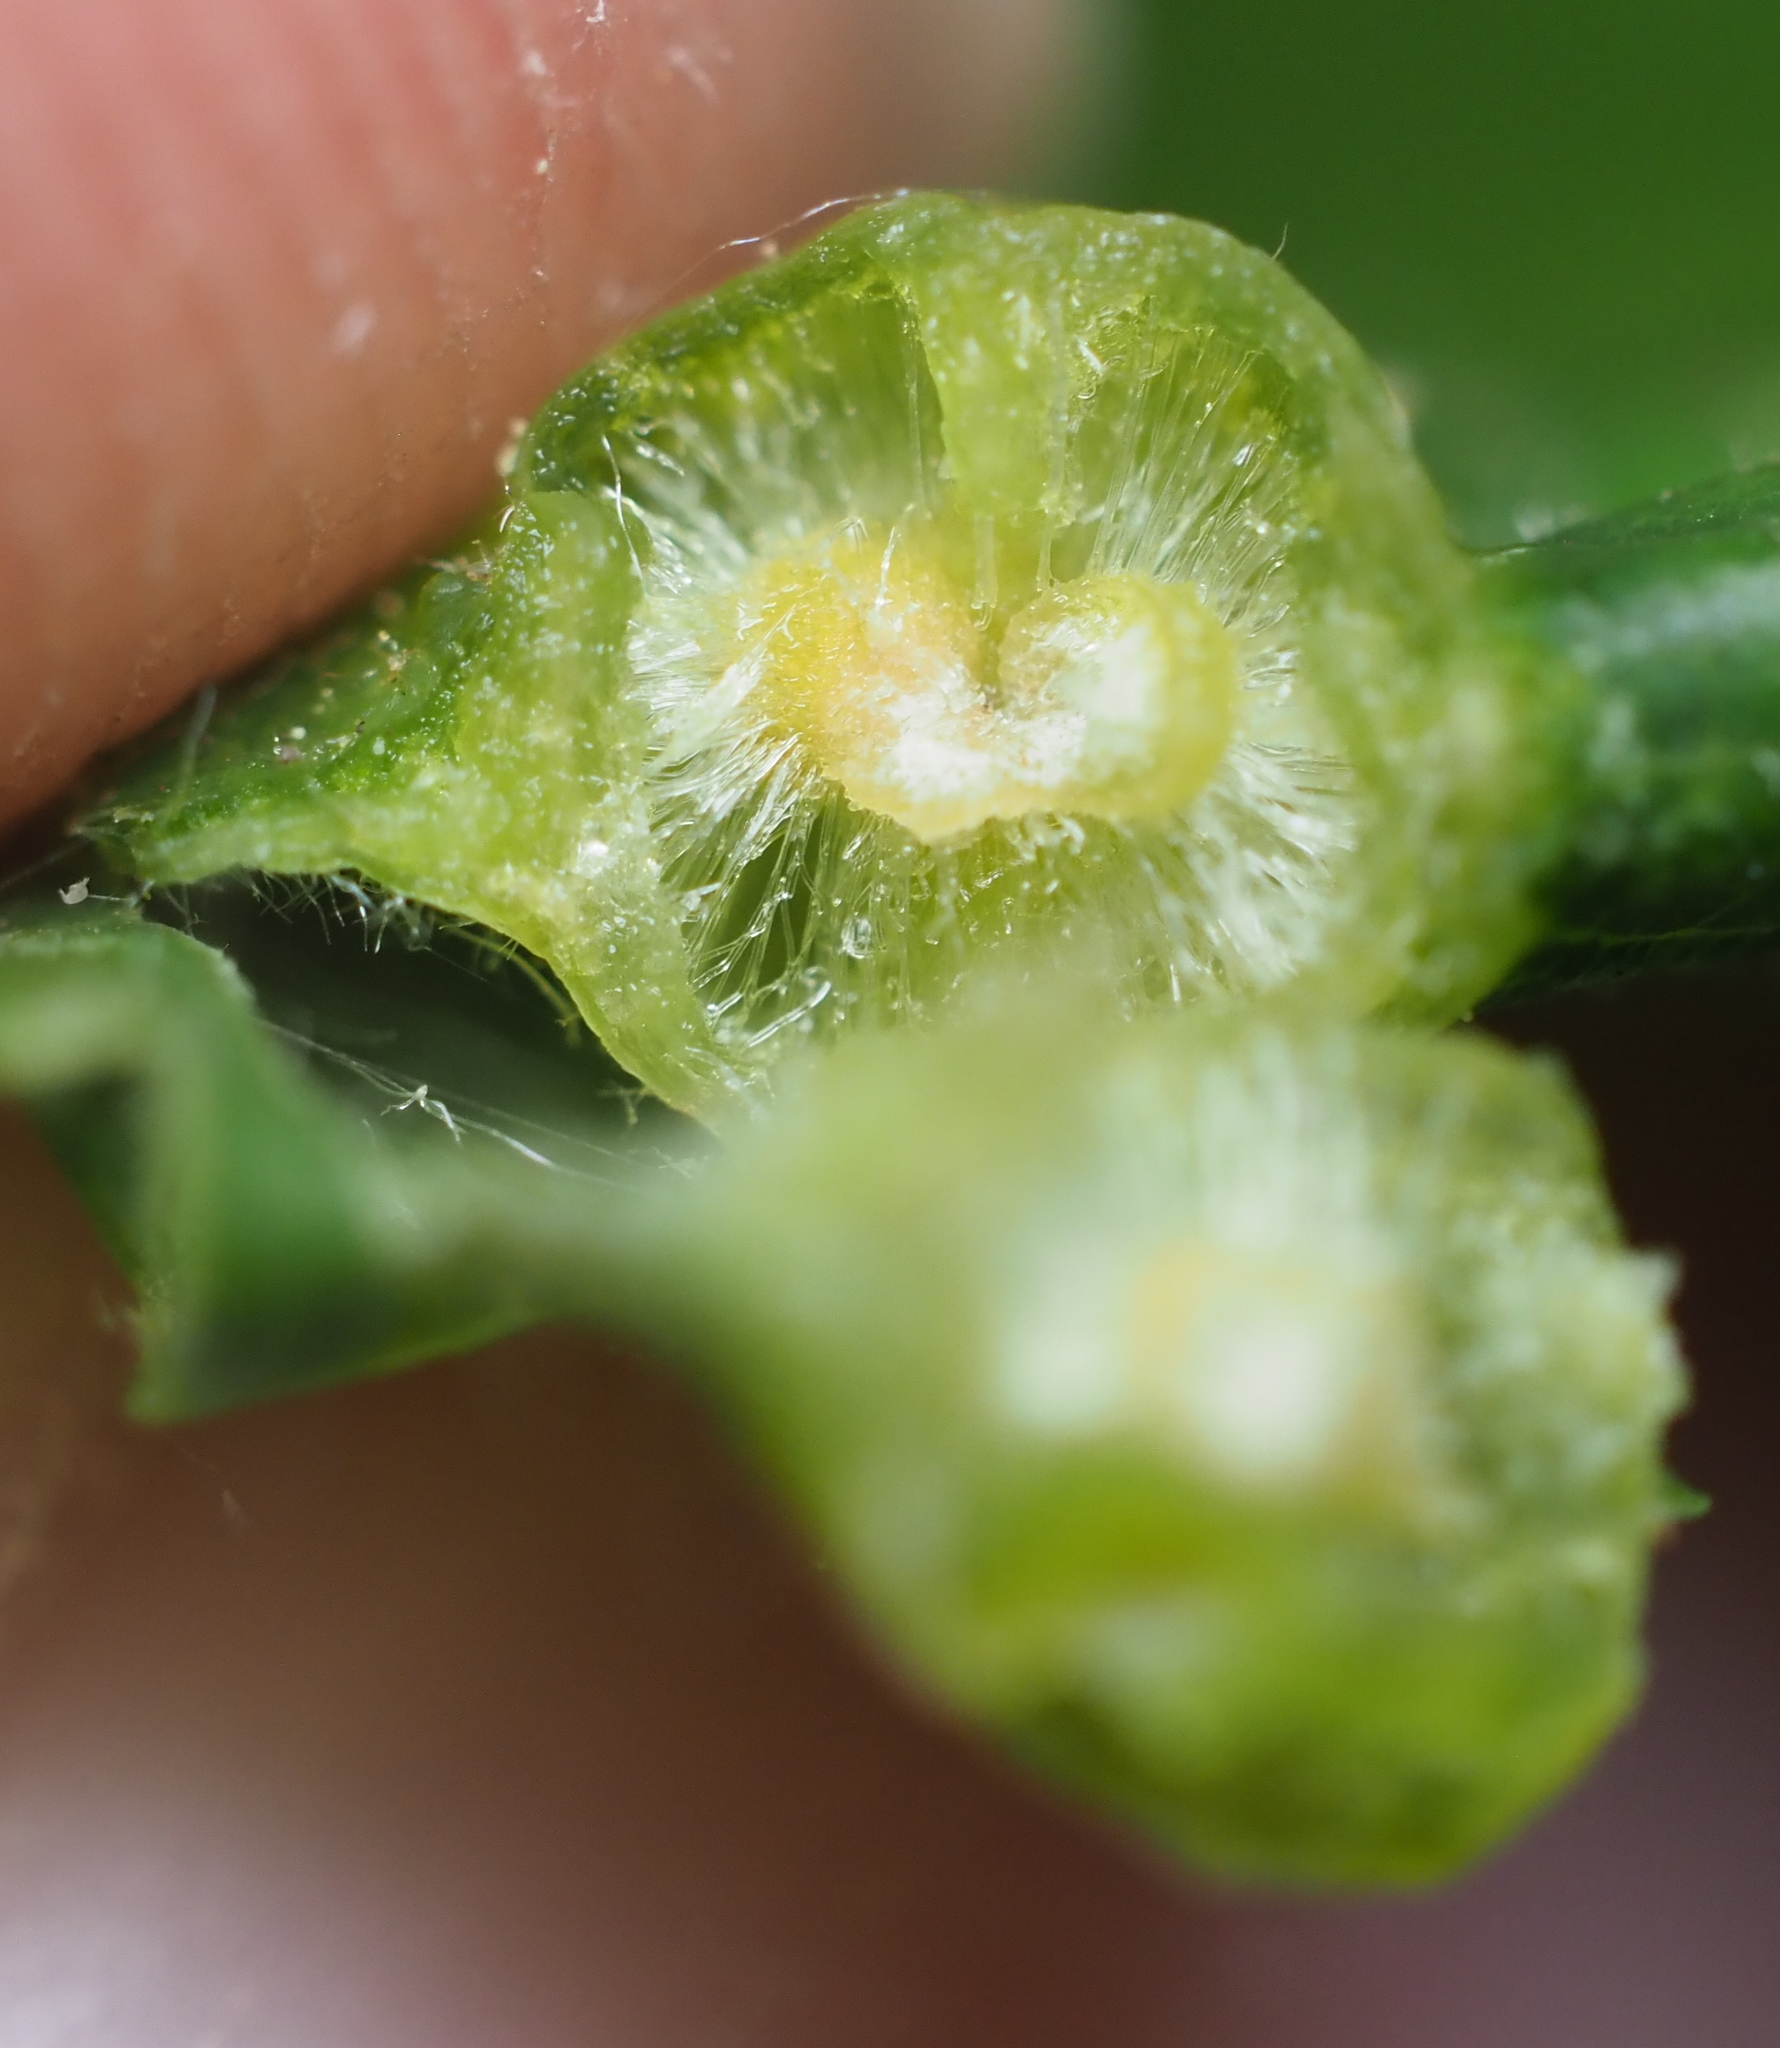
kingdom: Animalia
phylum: Arthropoda
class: Insecta
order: Hymenoptera
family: Cynipidae
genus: Callirhytis
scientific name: Callirhytis
